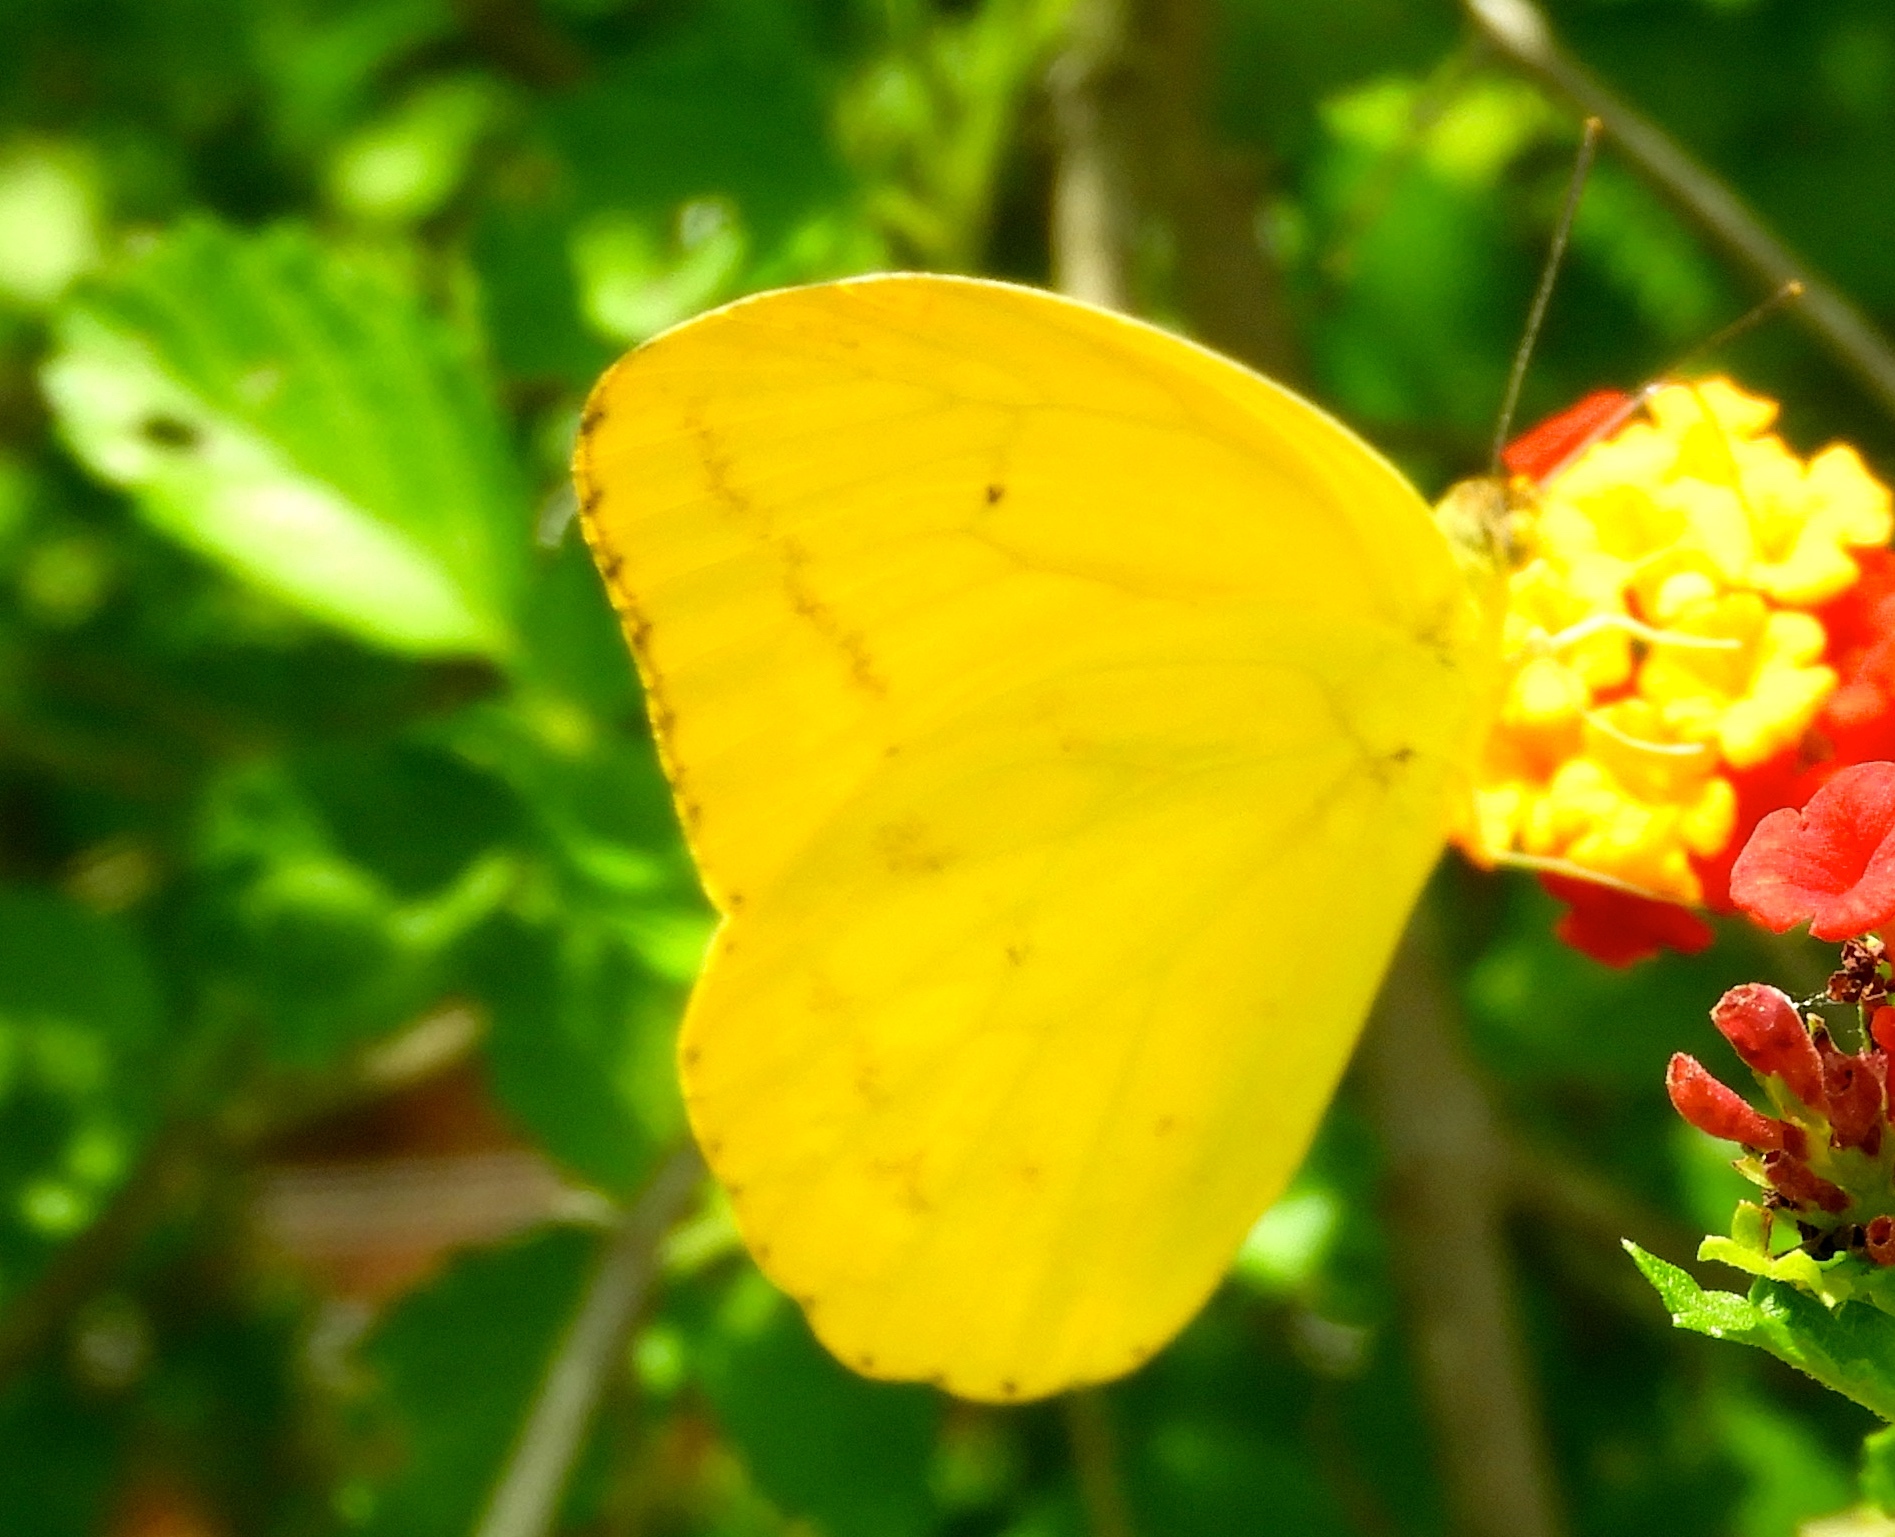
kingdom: Animalia
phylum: Arthropoda
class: Insecta
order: Lepidoptera
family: Pieridae
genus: Phoebis
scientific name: Phoebis agarithe
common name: Large orange sulphur
